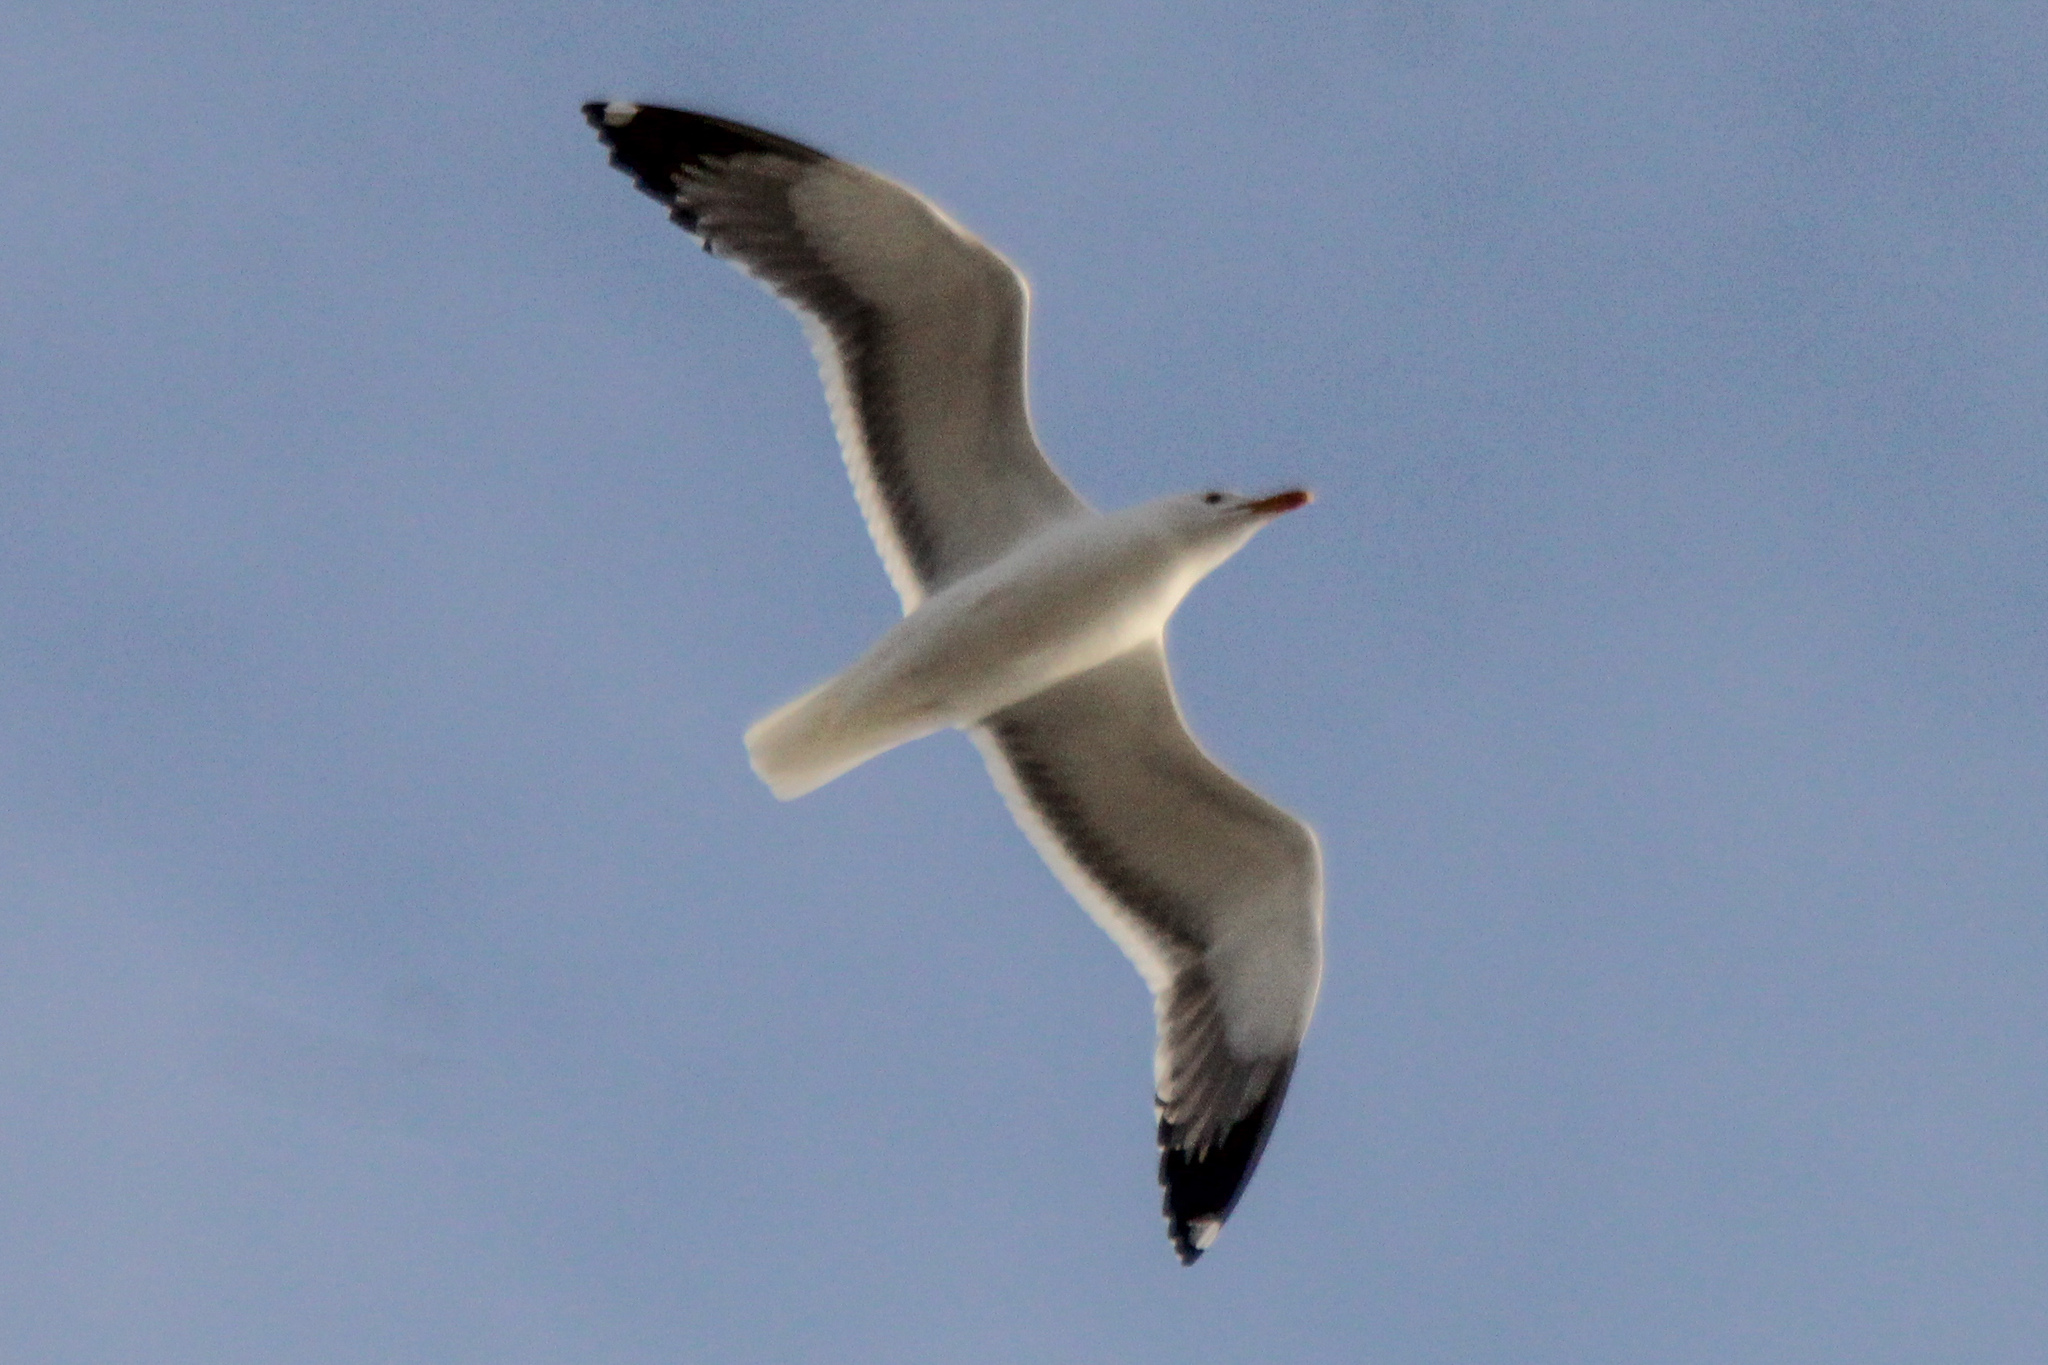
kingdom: Animalia
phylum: Chordata
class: Aves
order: Charadriiformes
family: Laridae
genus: Larus
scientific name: Larus fuscus
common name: Lesser black-backed gull
